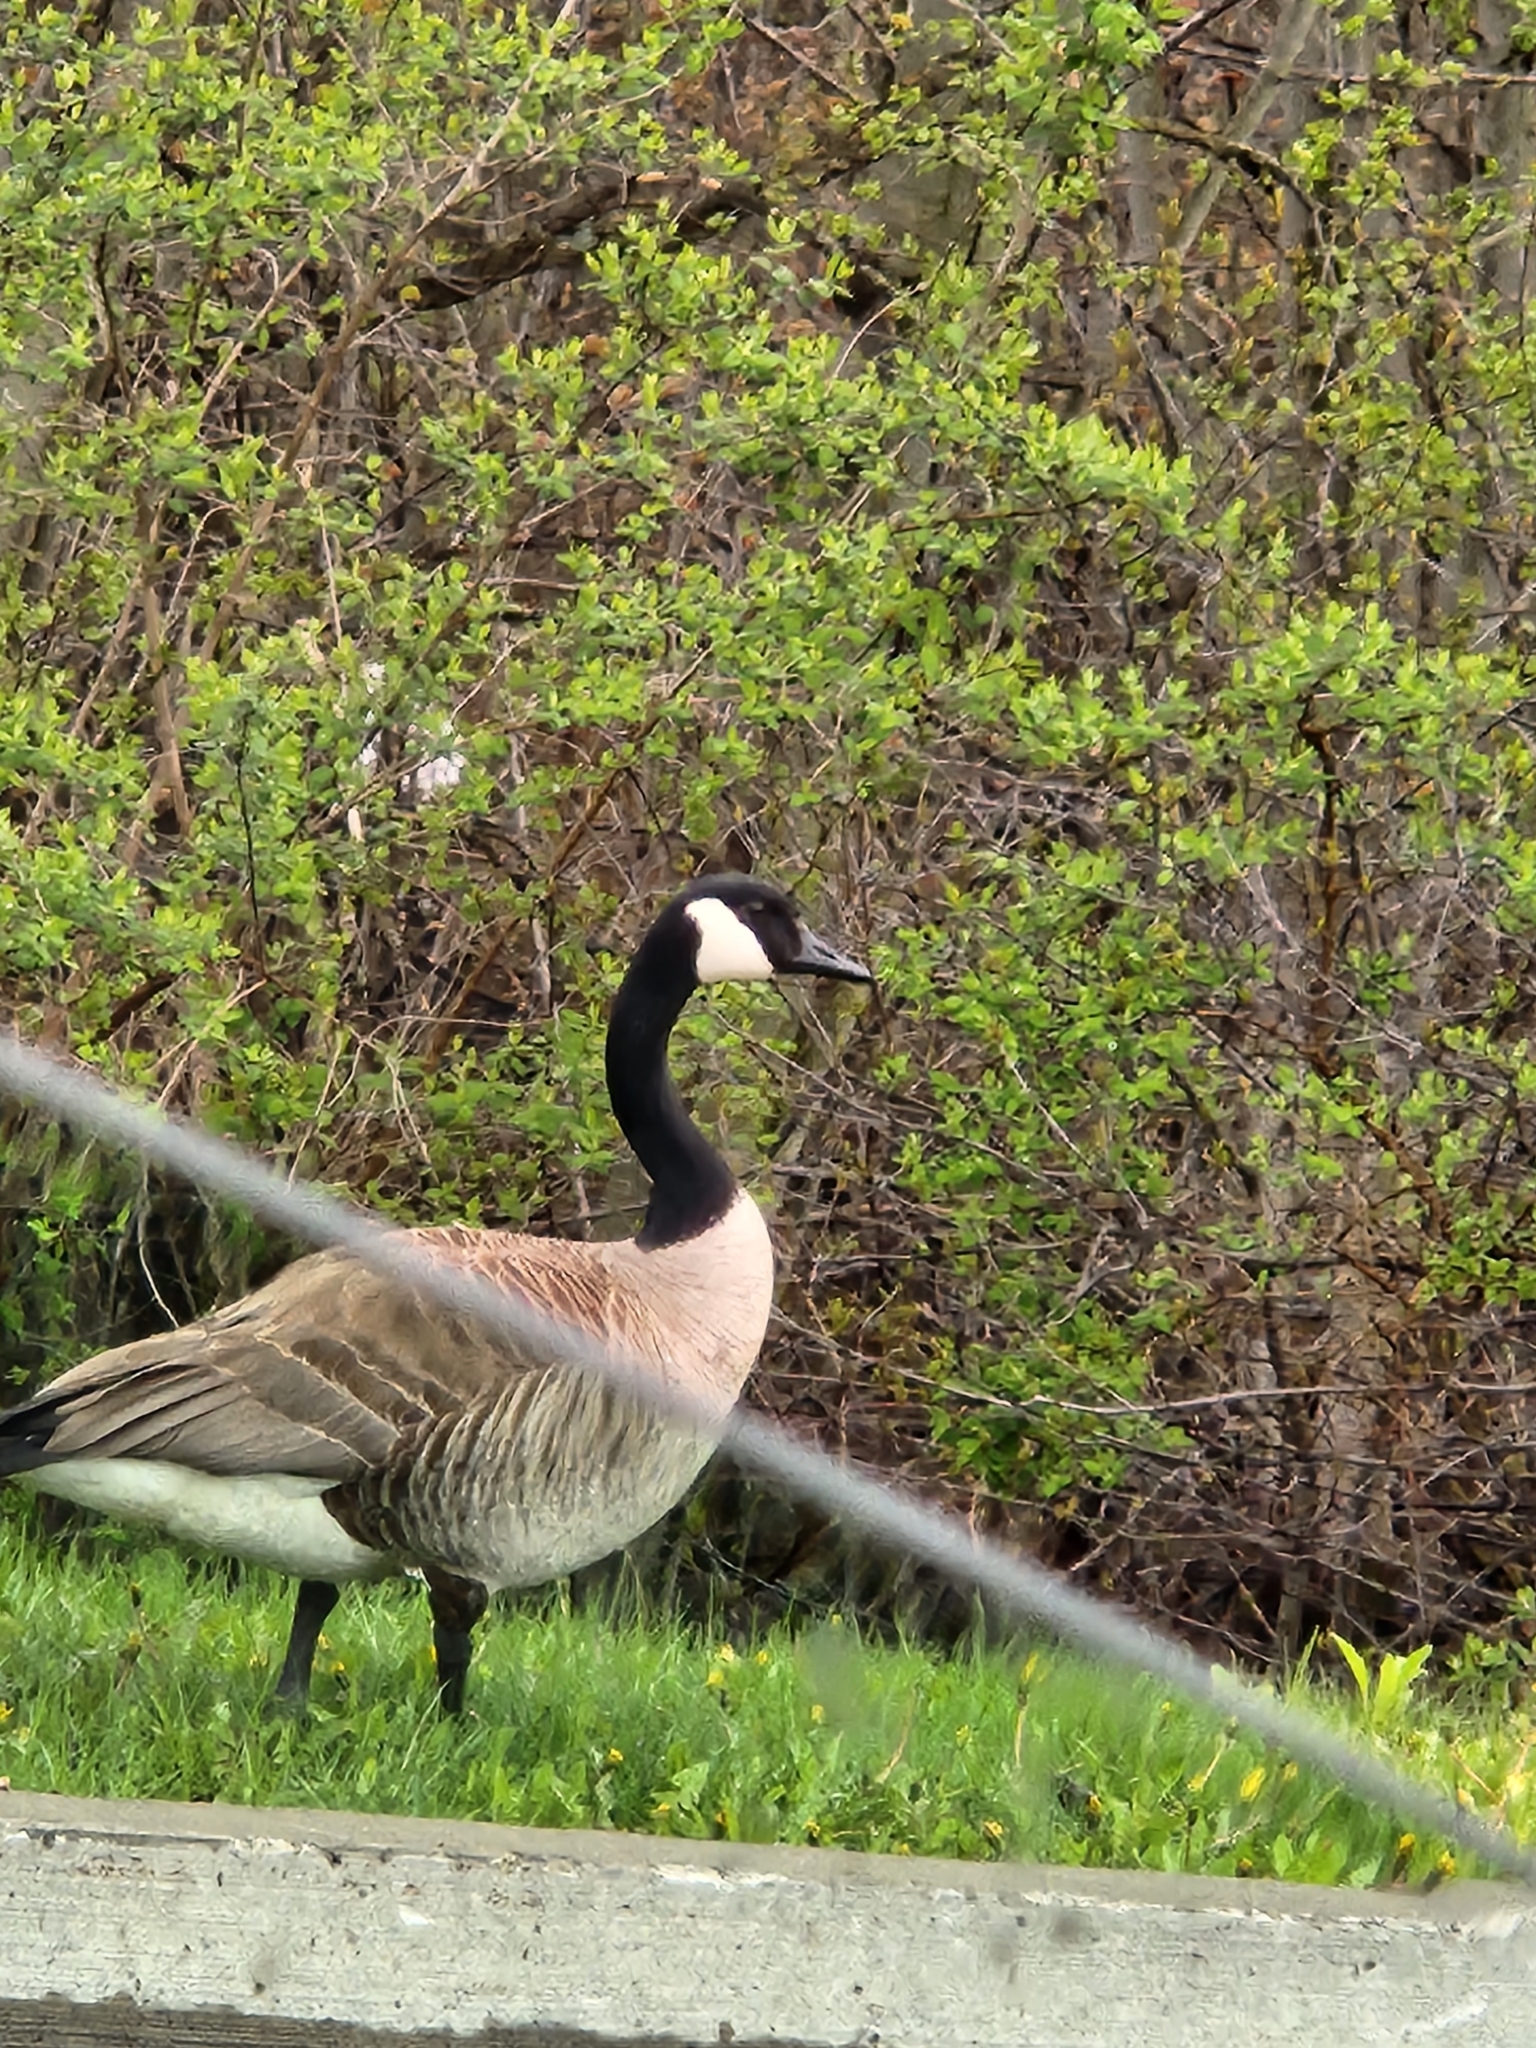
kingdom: Animalia
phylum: Chordata
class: Aves
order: Anseriformes
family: Anatidae
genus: Branta
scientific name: Branta canadensis
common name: Canada goose
